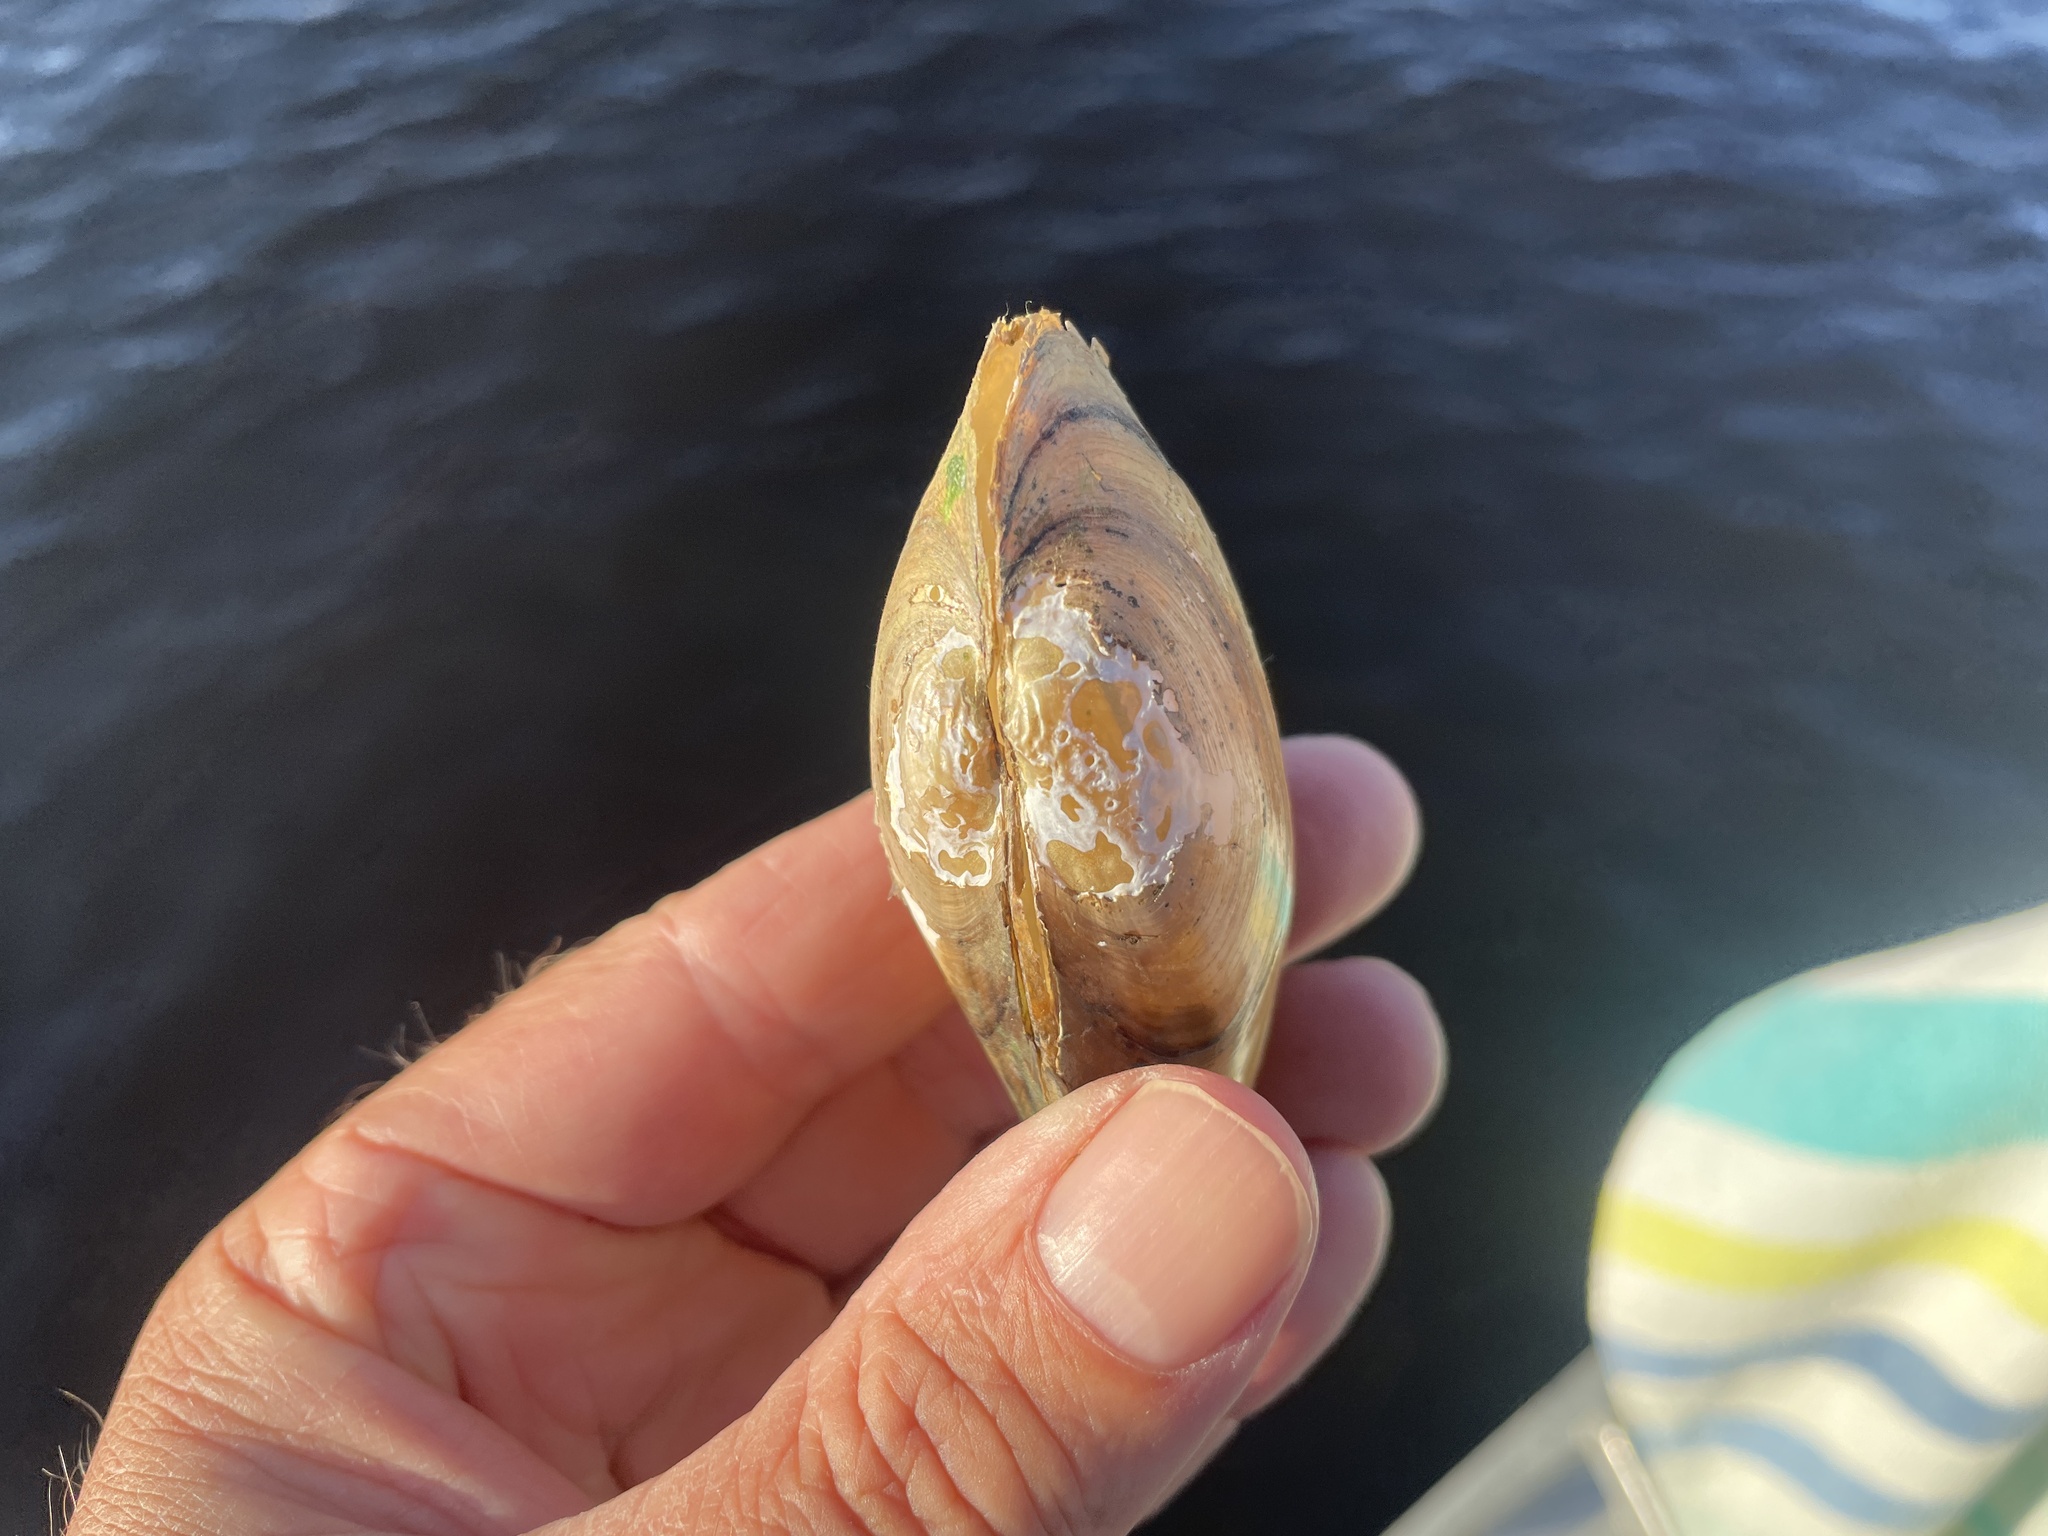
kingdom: Animalia
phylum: Mollusca
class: Bivalvia
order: Unionida
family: Unionidae
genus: Pyganodon
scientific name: Pyganodon cataracta
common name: Eastern floater
